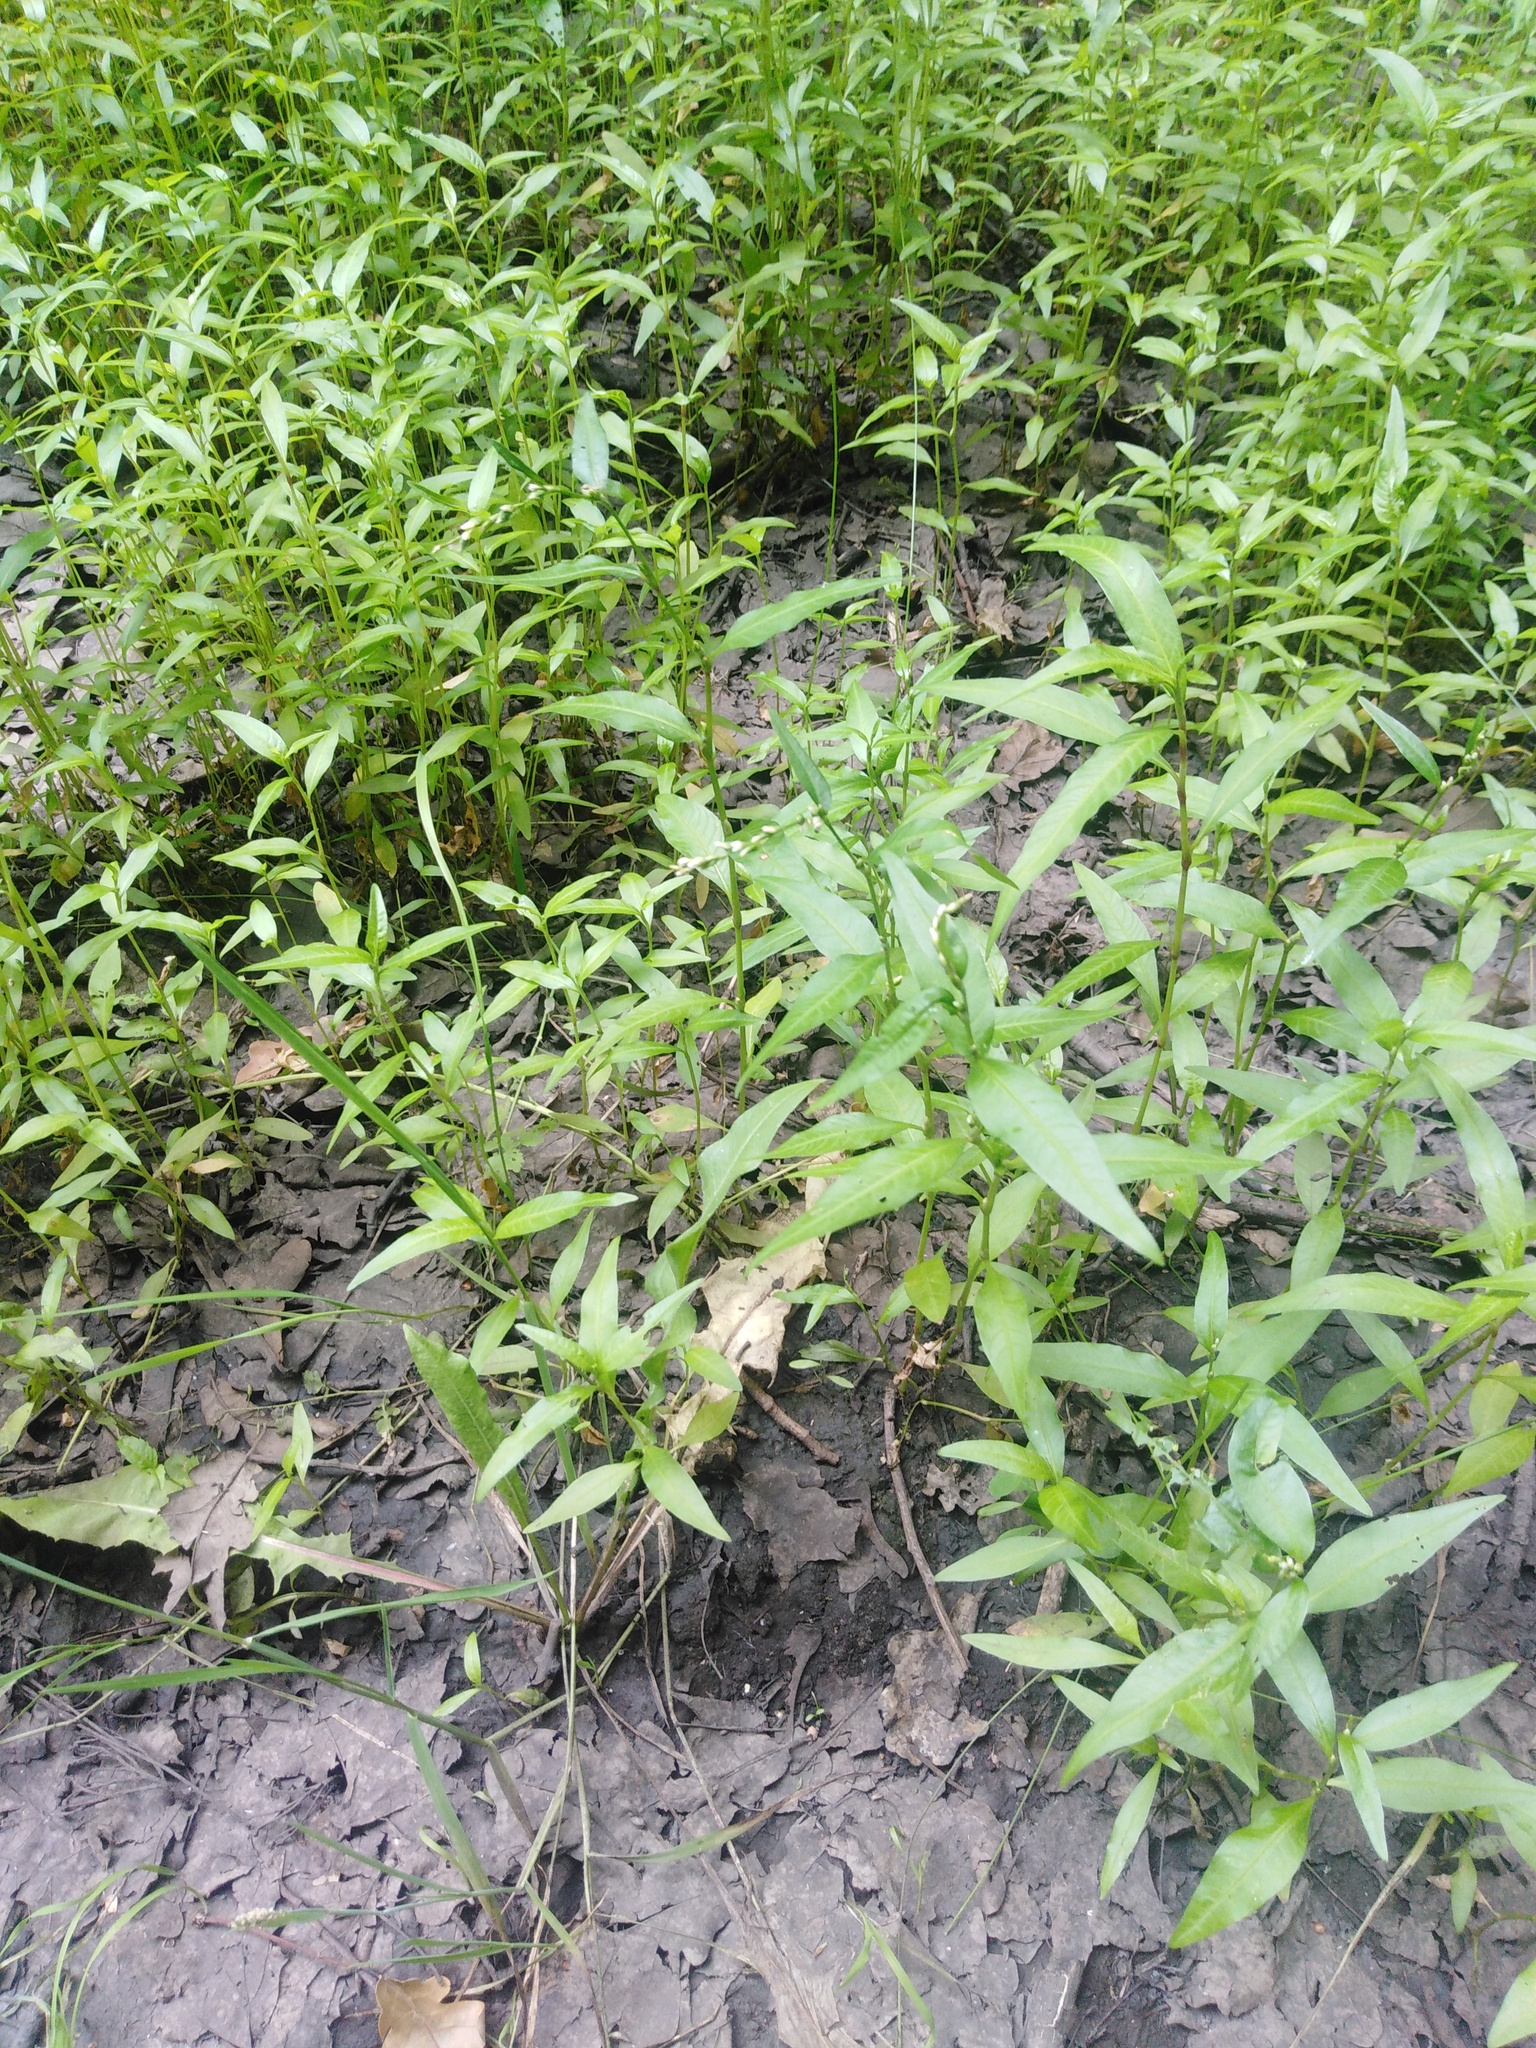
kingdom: Plantae
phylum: Tracheophyta
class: Magnoliopsida
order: Caryophyllales
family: Polygonaceae
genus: Persicaria
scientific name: Persicaria hydropiper
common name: Water-pepper
